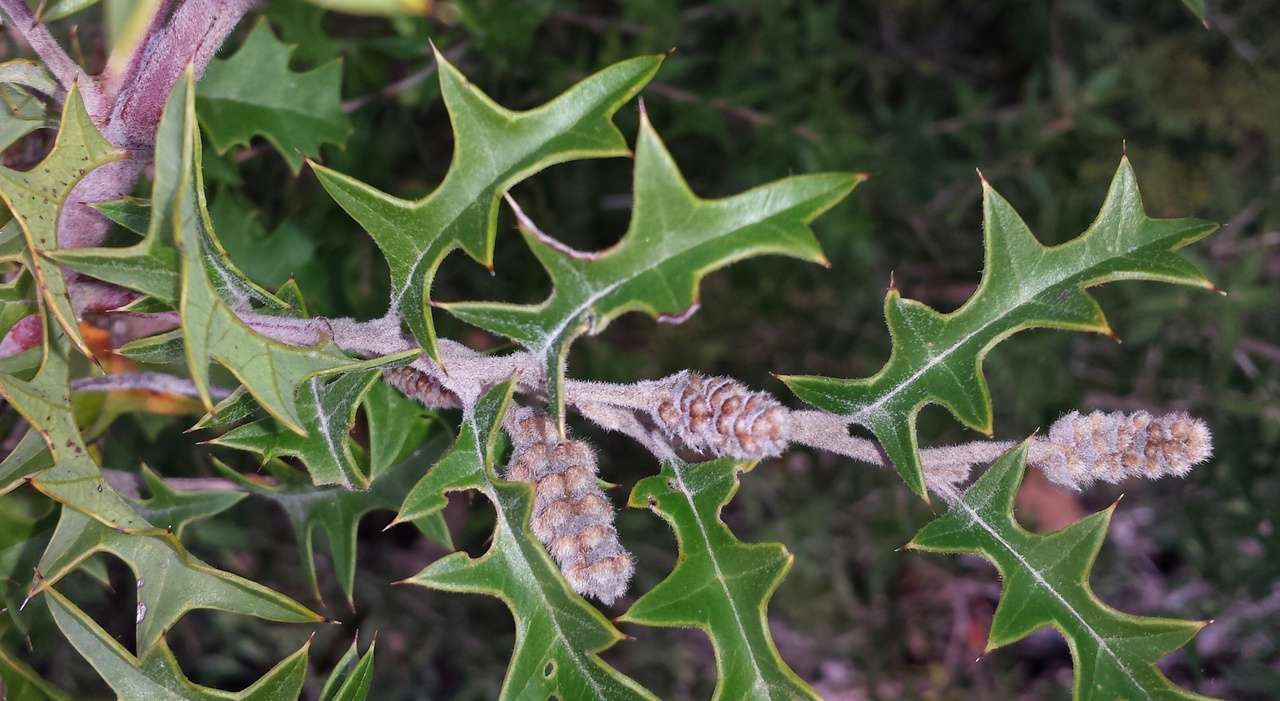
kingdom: Plantae
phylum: Tracheophyta
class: Magnoliopsida
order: Proteales
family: Proteaceae
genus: Grevillea
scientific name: Grevillea aquifolium
